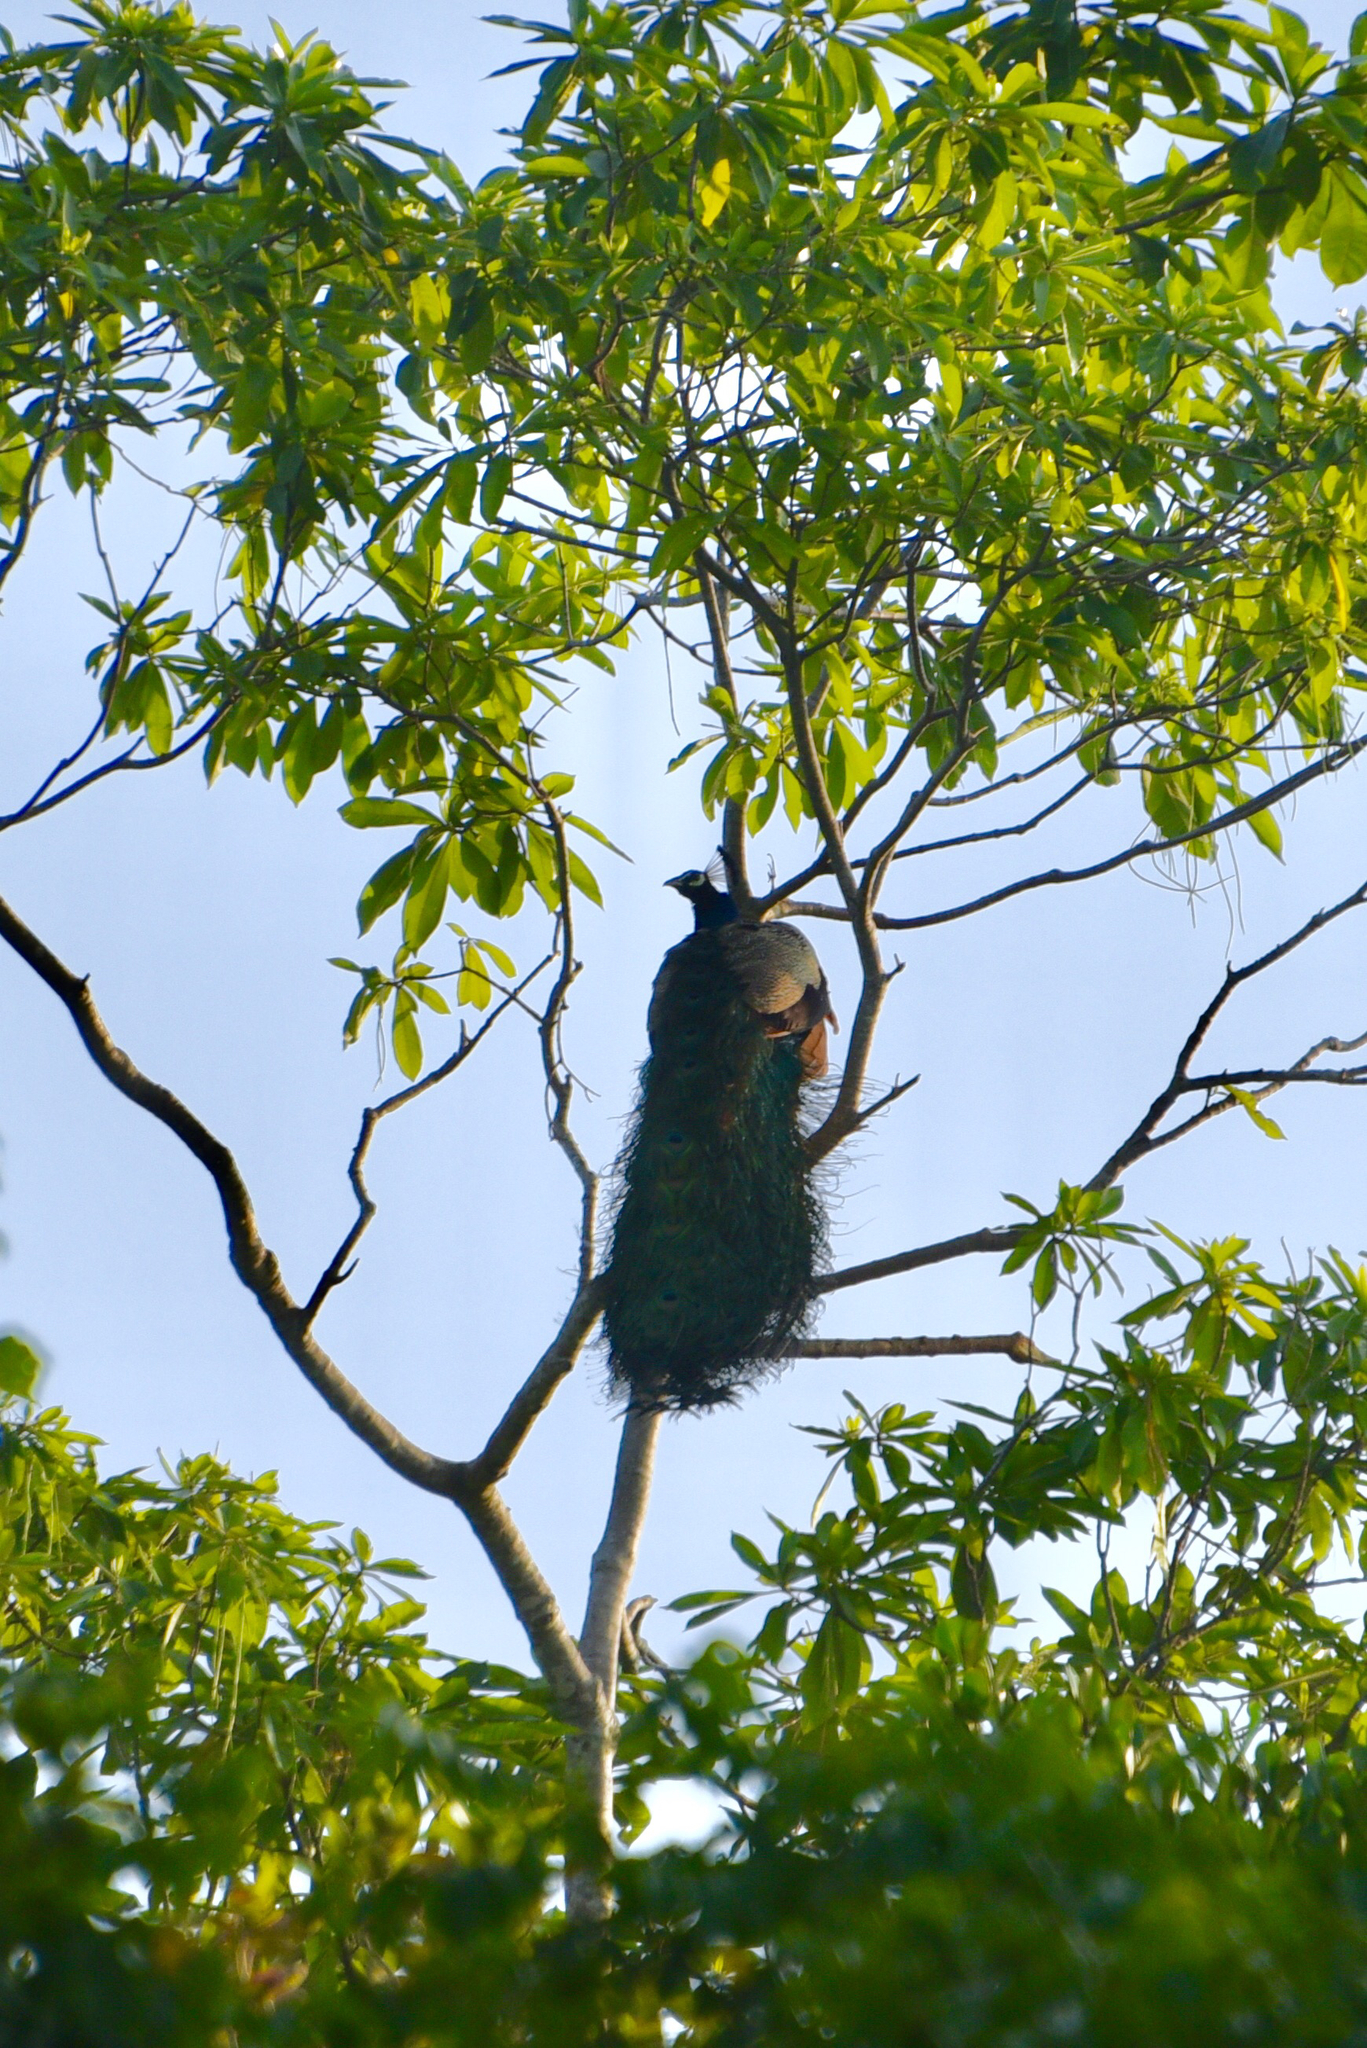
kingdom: Animalia
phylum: Chordata
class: Aves
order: Galliformes
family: Phasianidae
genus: Pavo
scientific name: Pavo cristatus
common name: Indian peafowl
